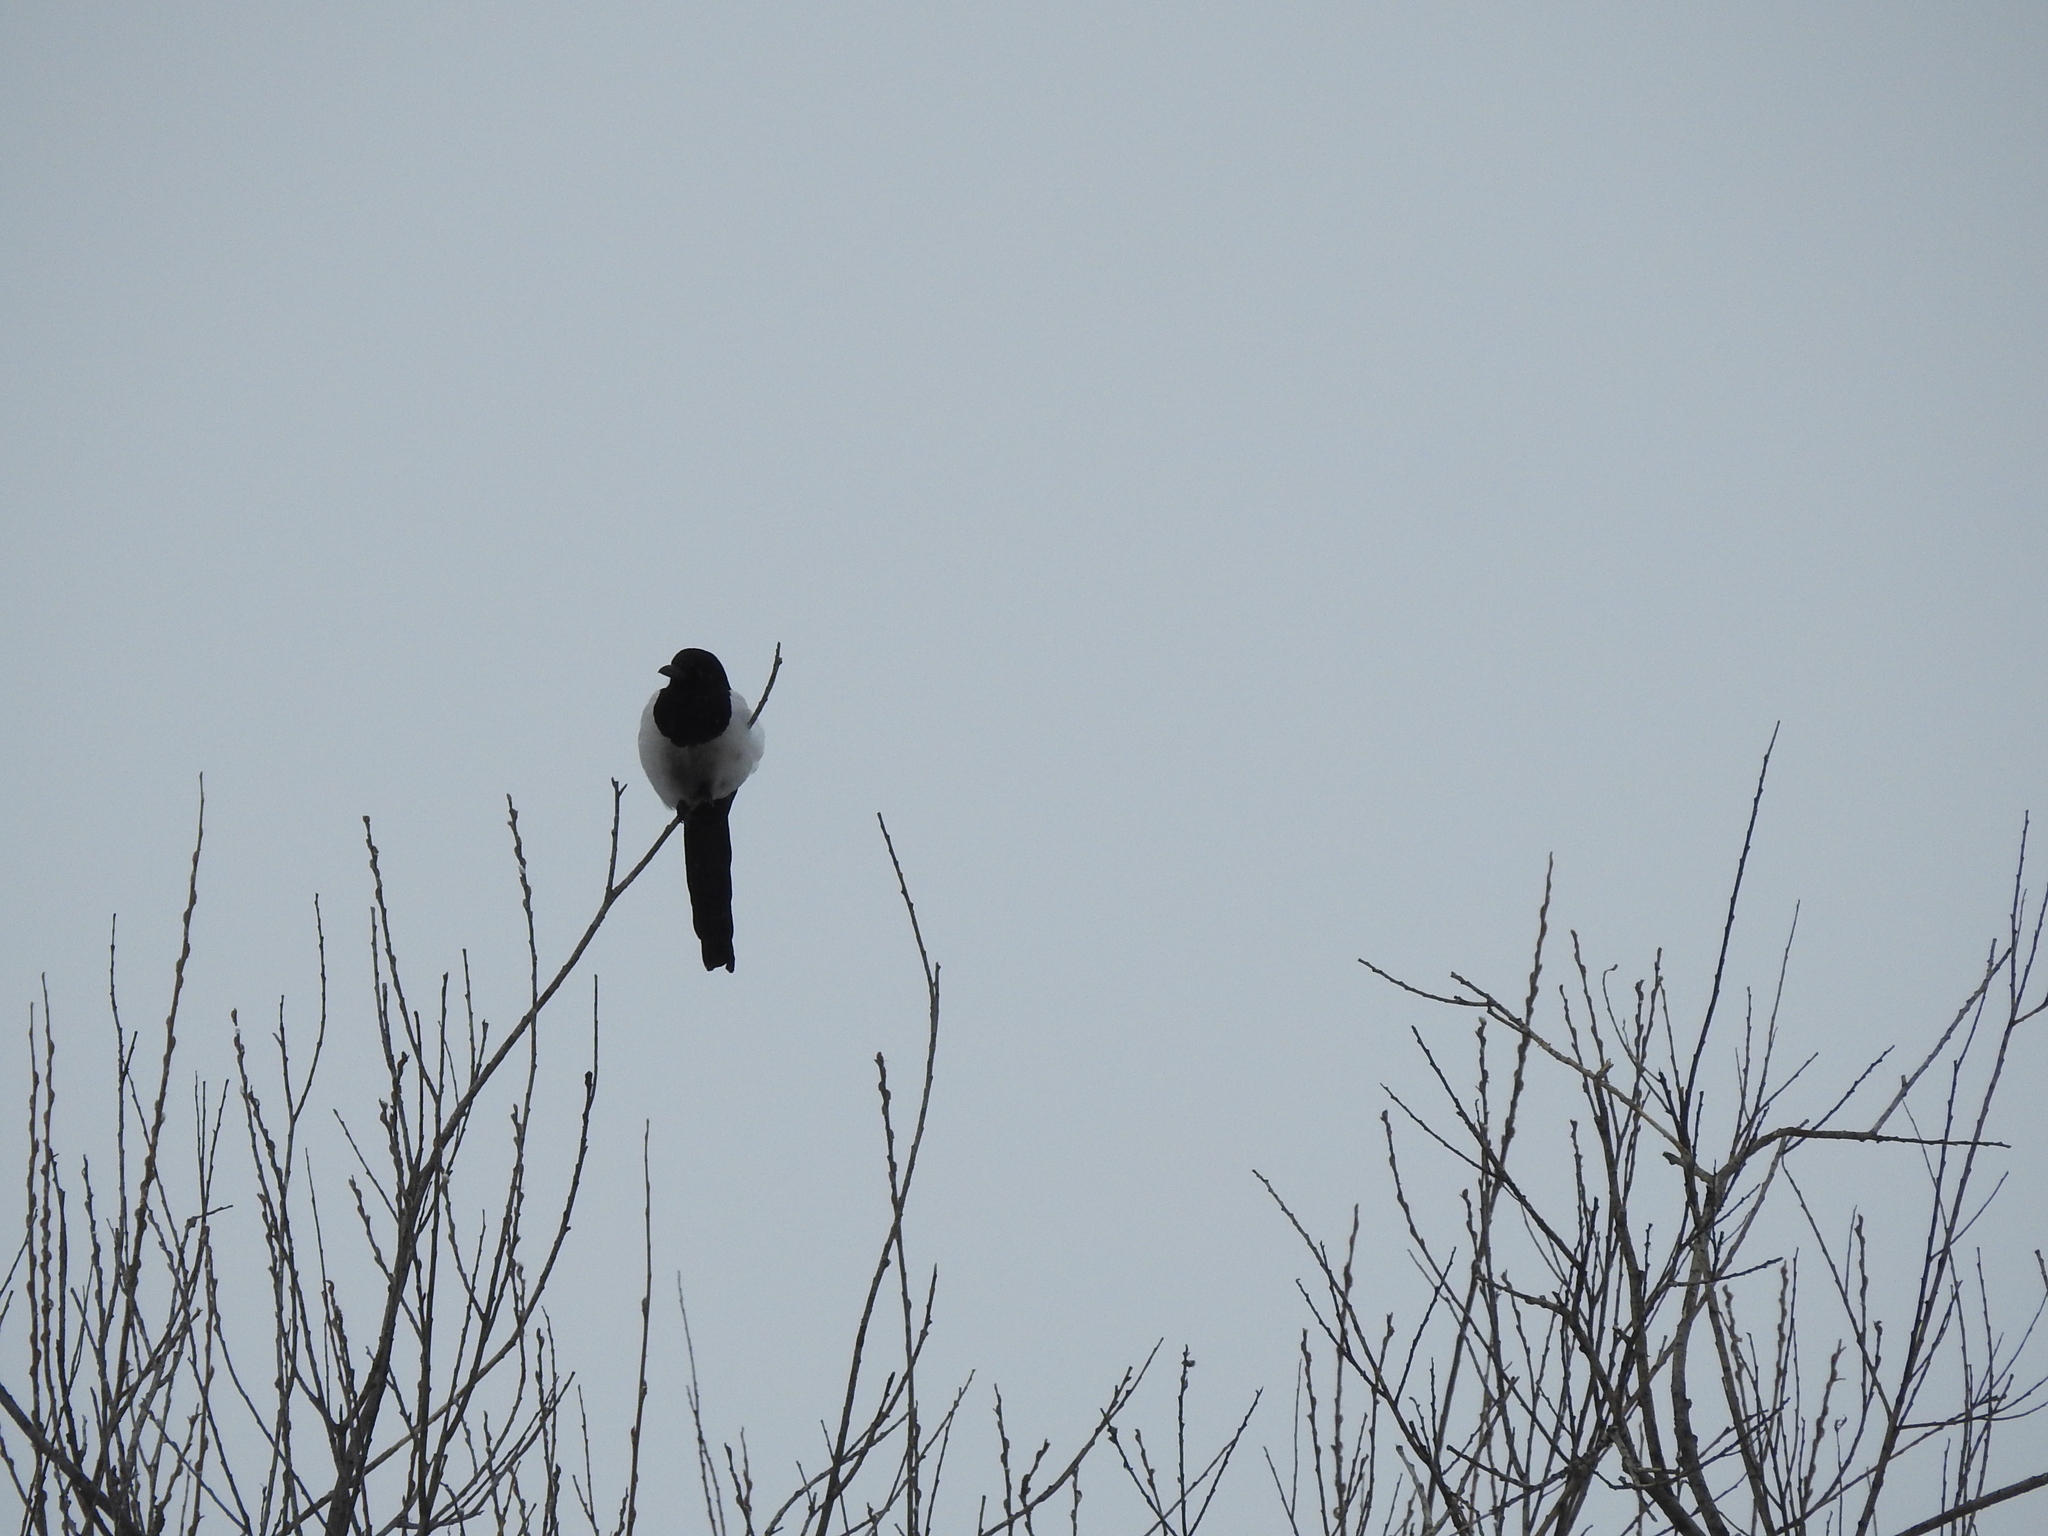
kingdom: Animalia
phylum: Chordata
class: Aves
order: Passeriformes
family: Corvidae
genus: Pica
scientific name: Pica pica
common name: Eurasian magpie
